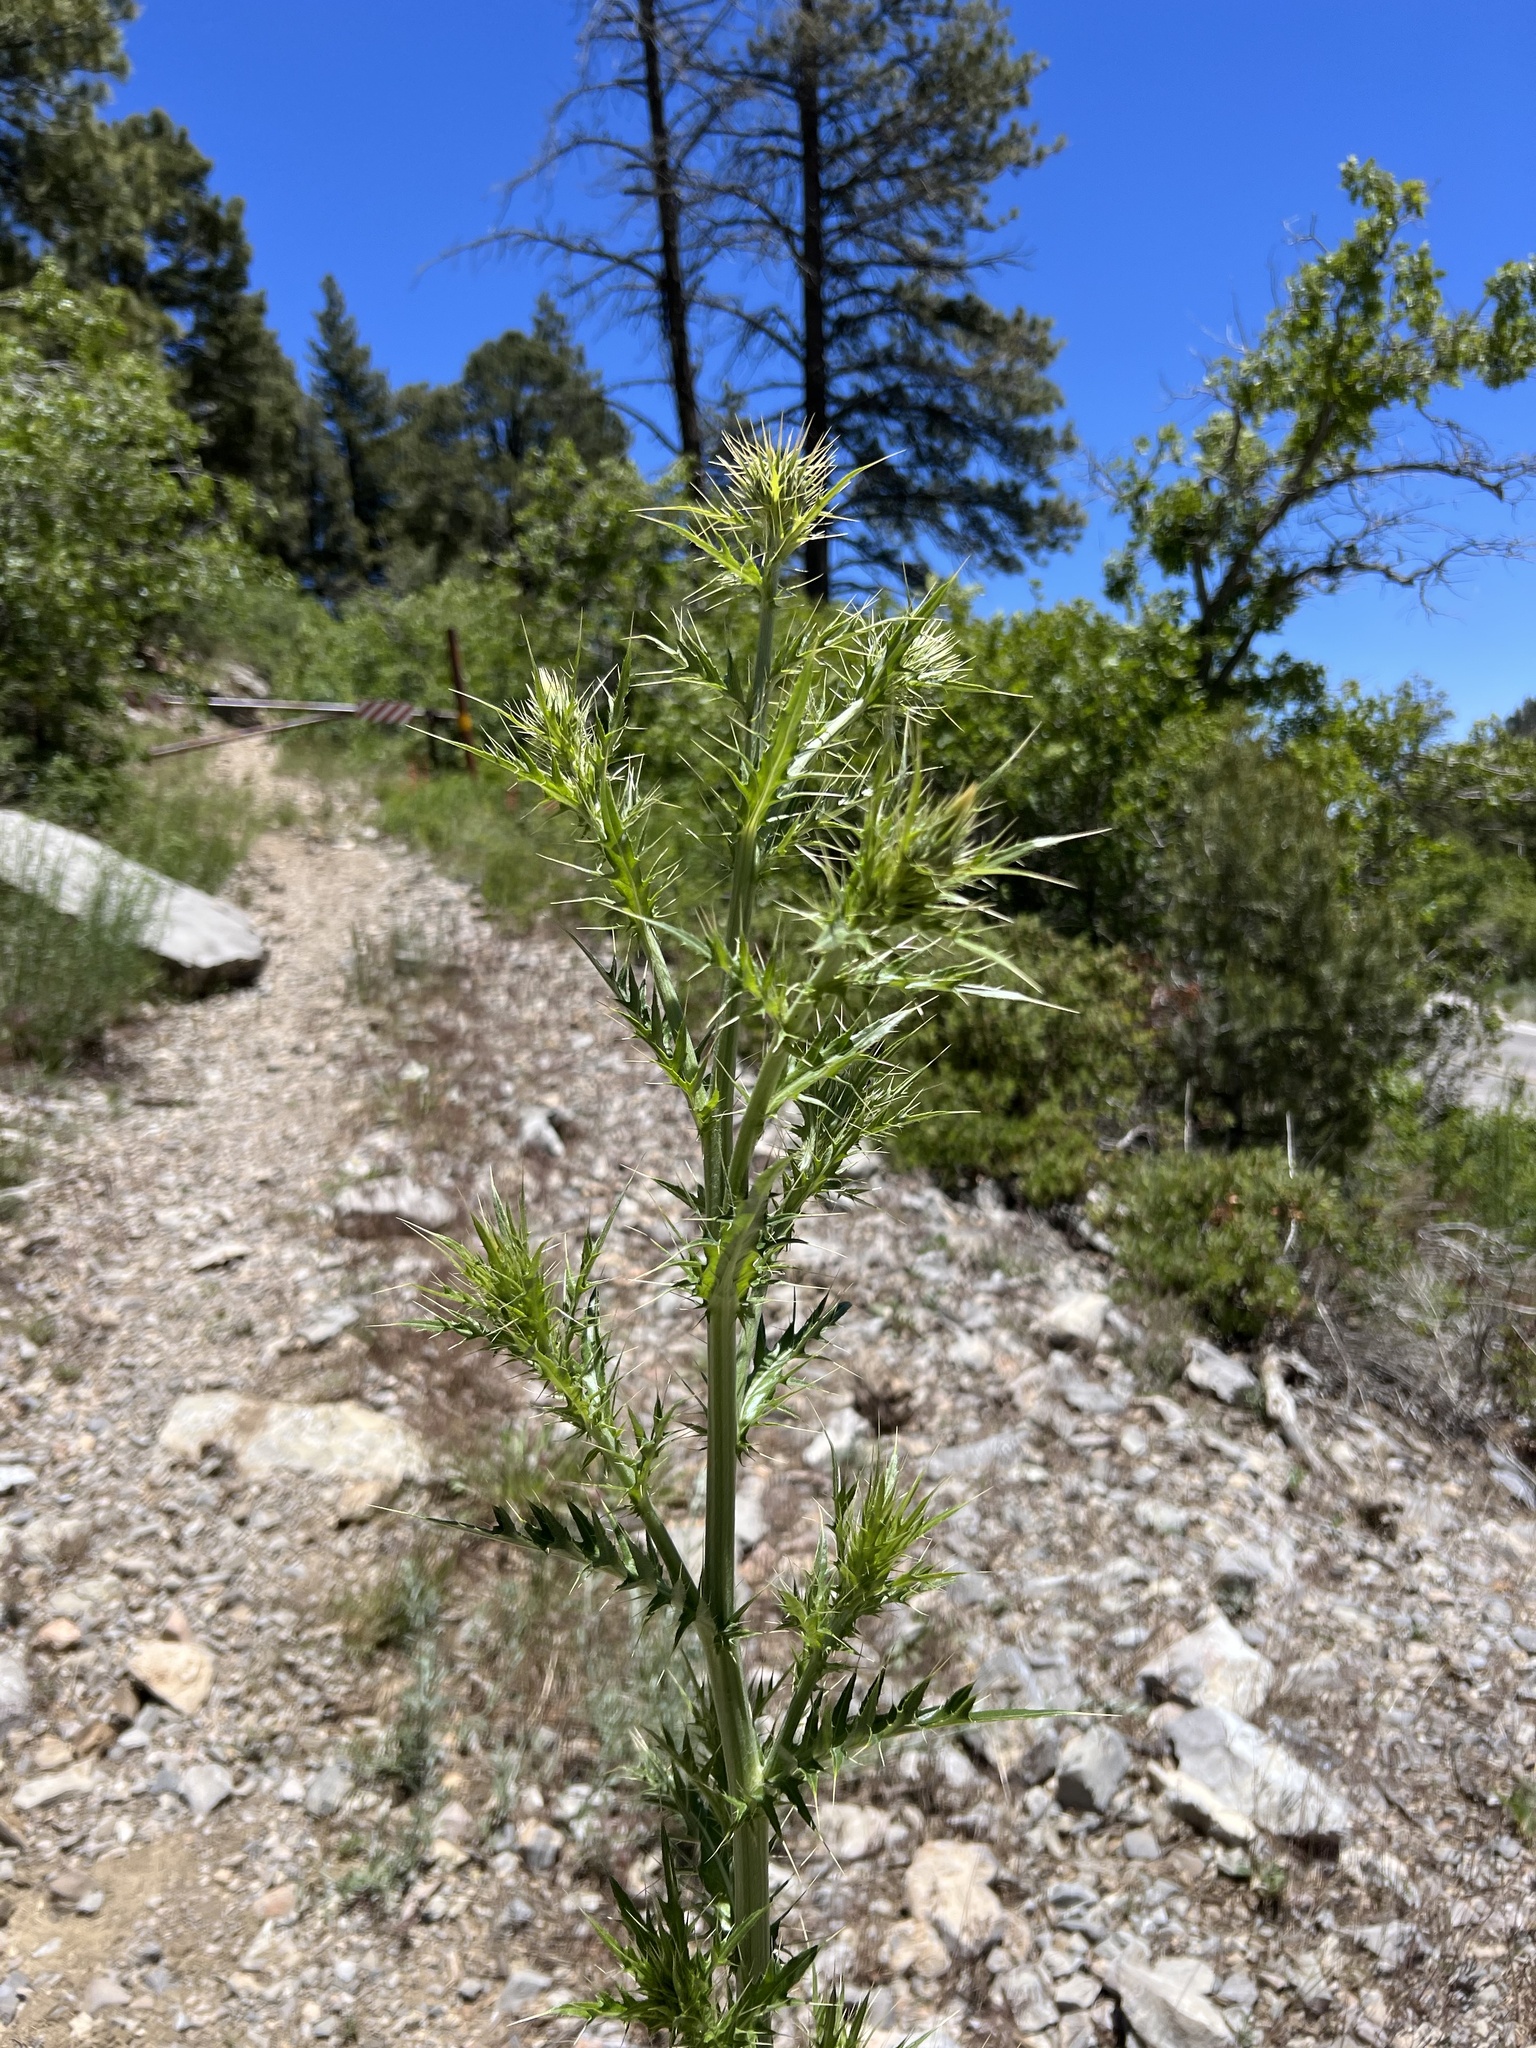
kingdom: Plantae
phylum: Tracheophyta
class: Magnoliopsida
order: Asterales
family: Asteraceae
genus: Cirsium
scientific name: Cirsium arizonicum
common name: Arizona thistle
